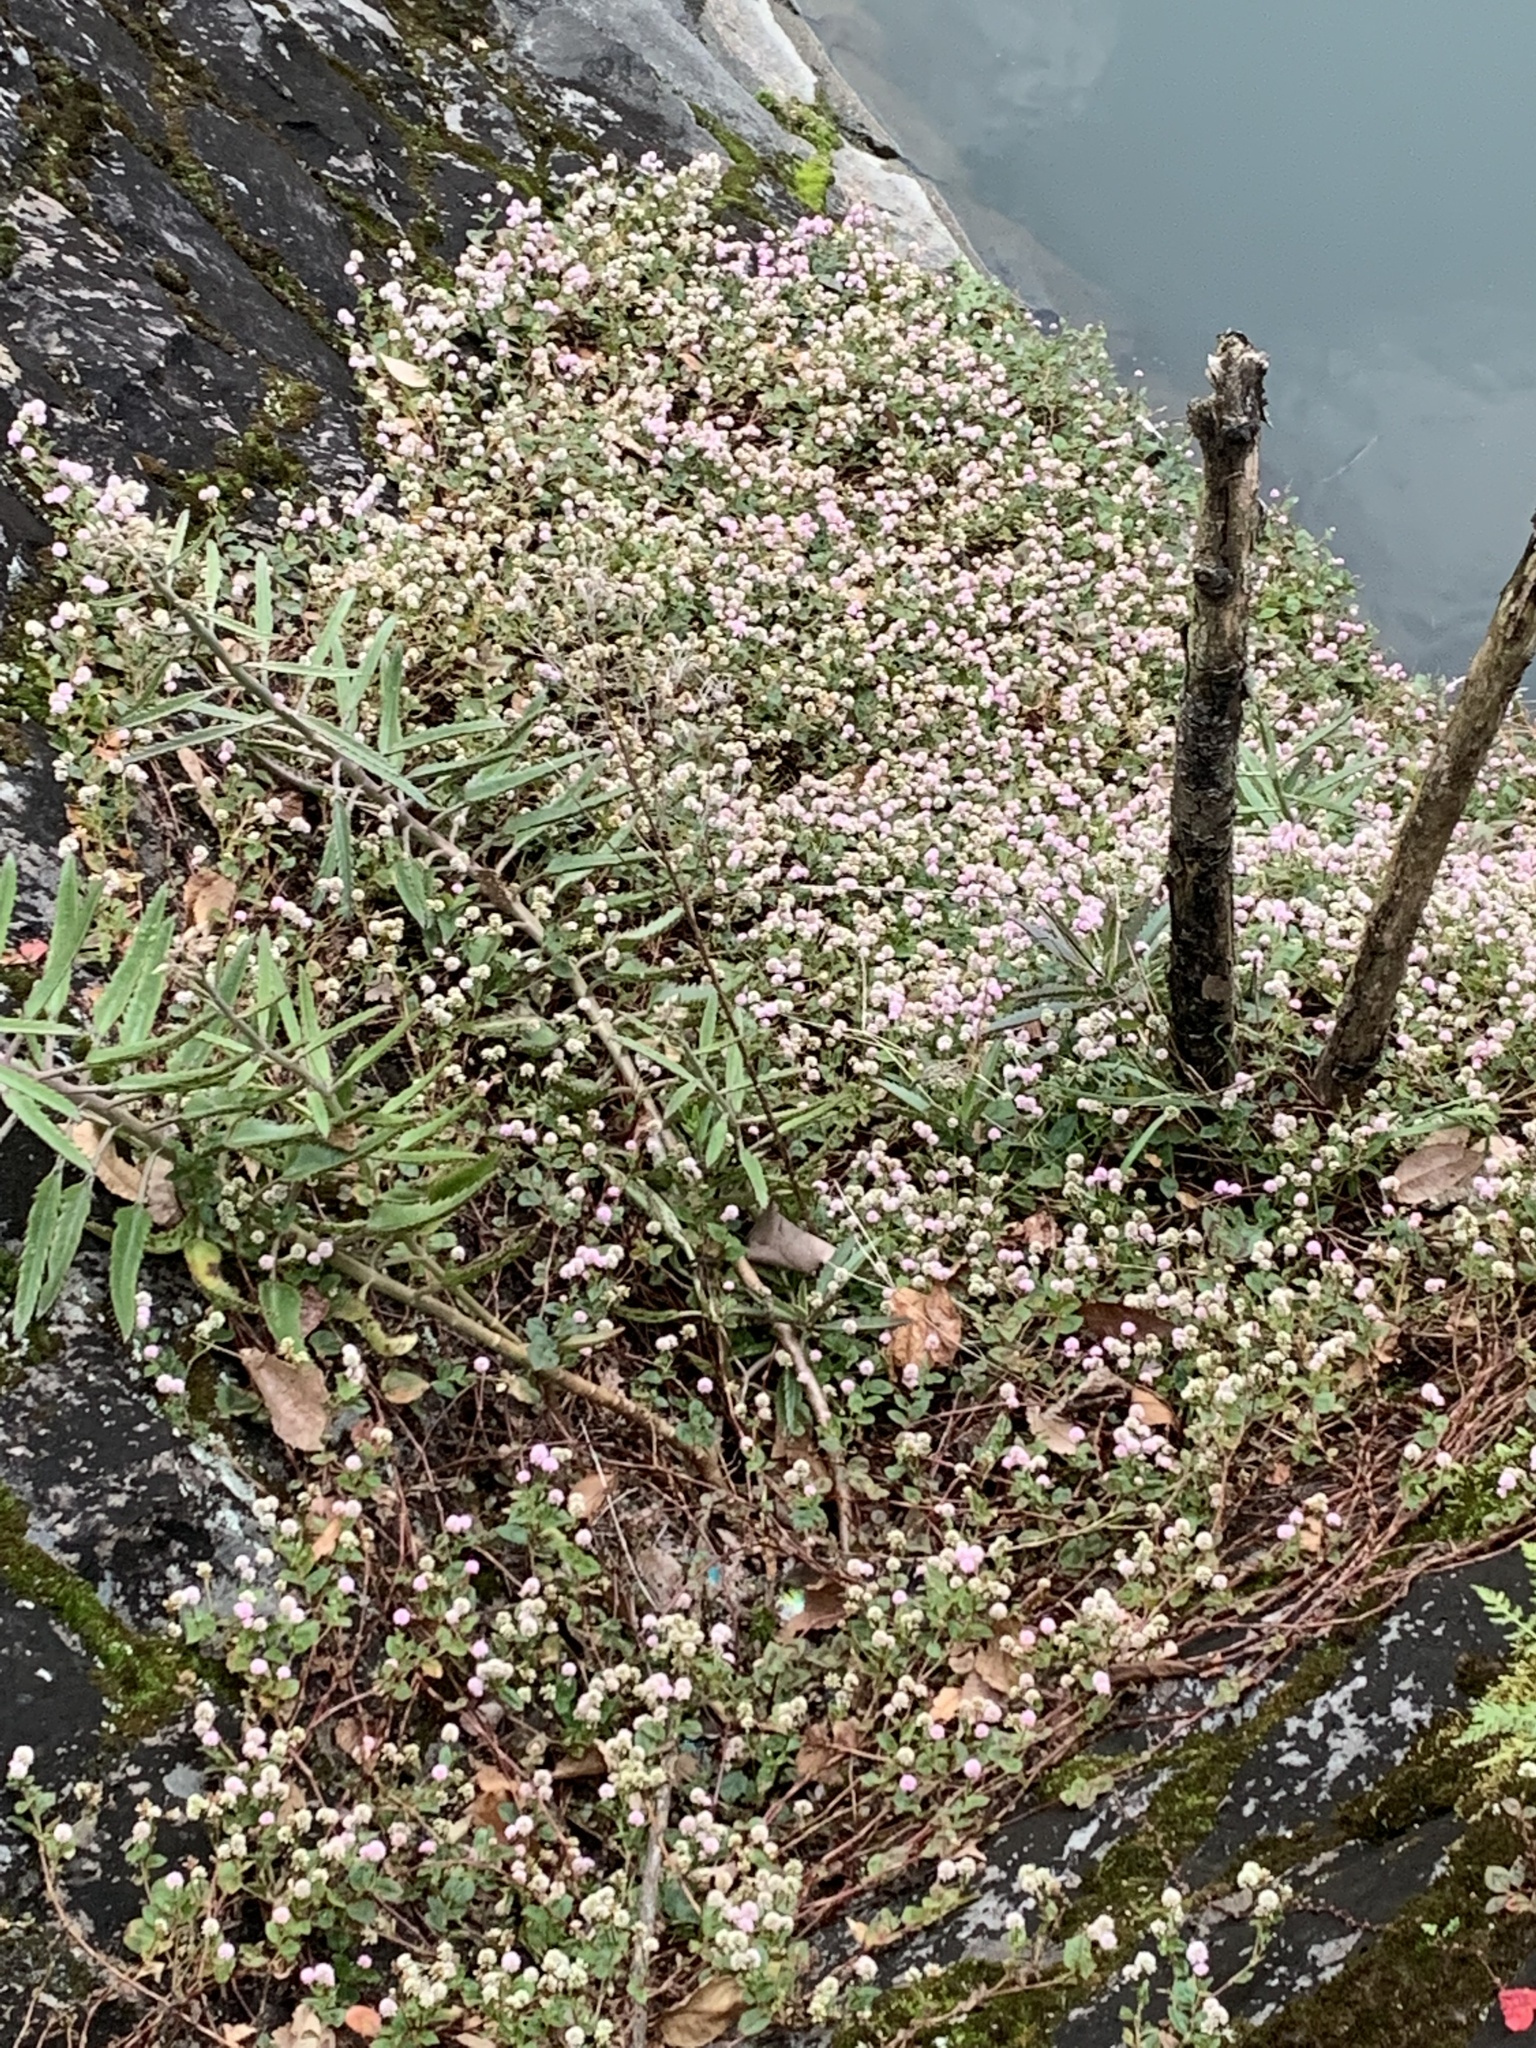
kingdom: Plantae
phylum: Tracheophyta
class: Magnoliopsida
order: Caryophyllales
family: Polygonaceae
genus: Persicaria
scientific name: Persicaria capitata
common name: Pinkhead smartweed
